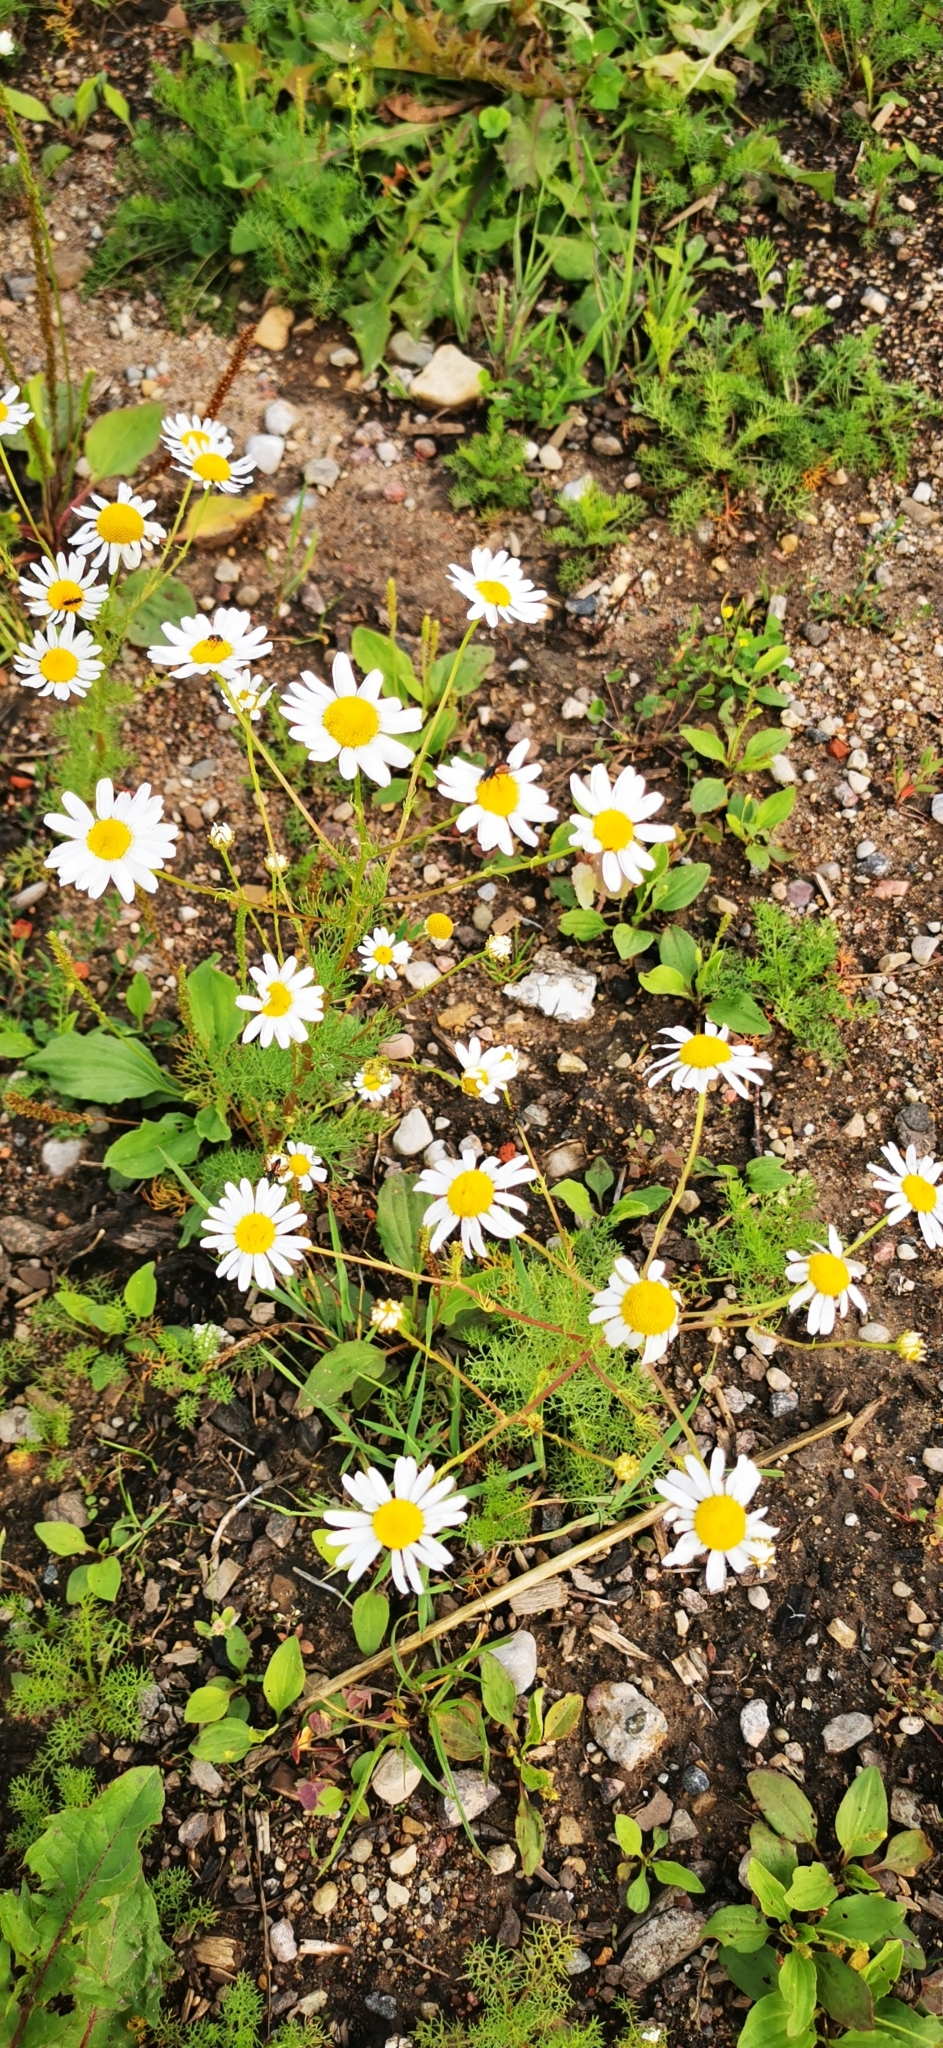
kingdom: Plantae
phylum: Tracheophyta
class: Magnoliopsida
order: Asterales
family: Asteraceae
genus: Tripleurospermum
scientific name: Tripleurospermum inodorum
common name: Scentless mayweed
